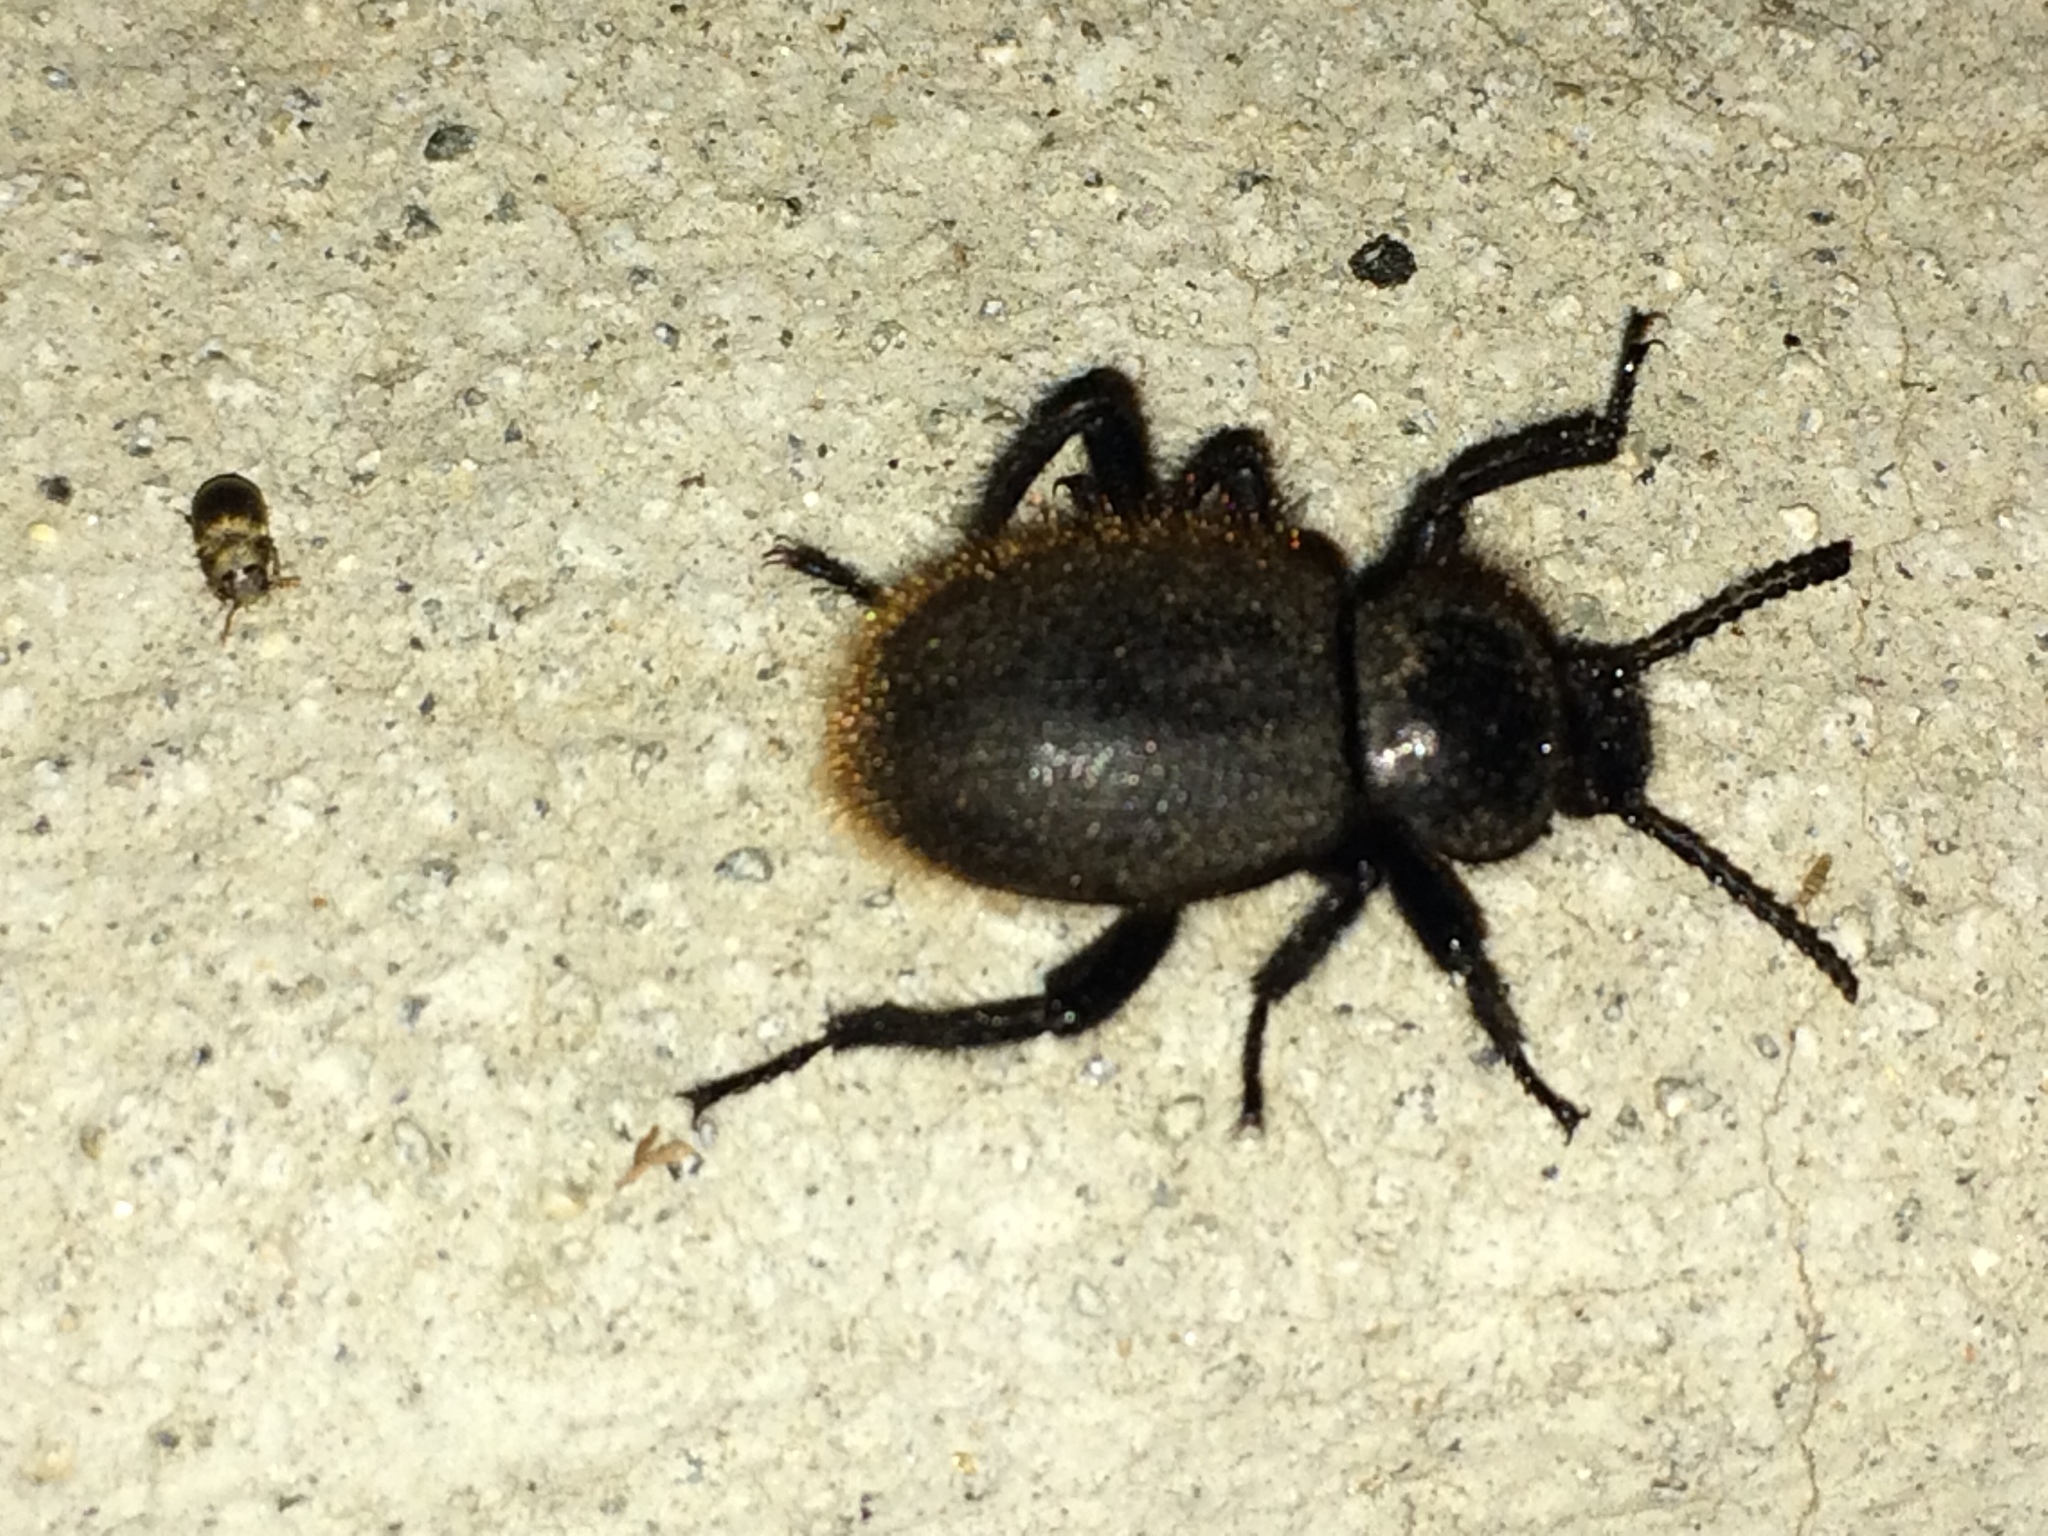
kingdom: Animalia
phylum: Arthropoda
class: Insecta
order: Coleoptera
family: Tenebrionidae
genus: Eleodes
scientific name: Eleodes osculans
